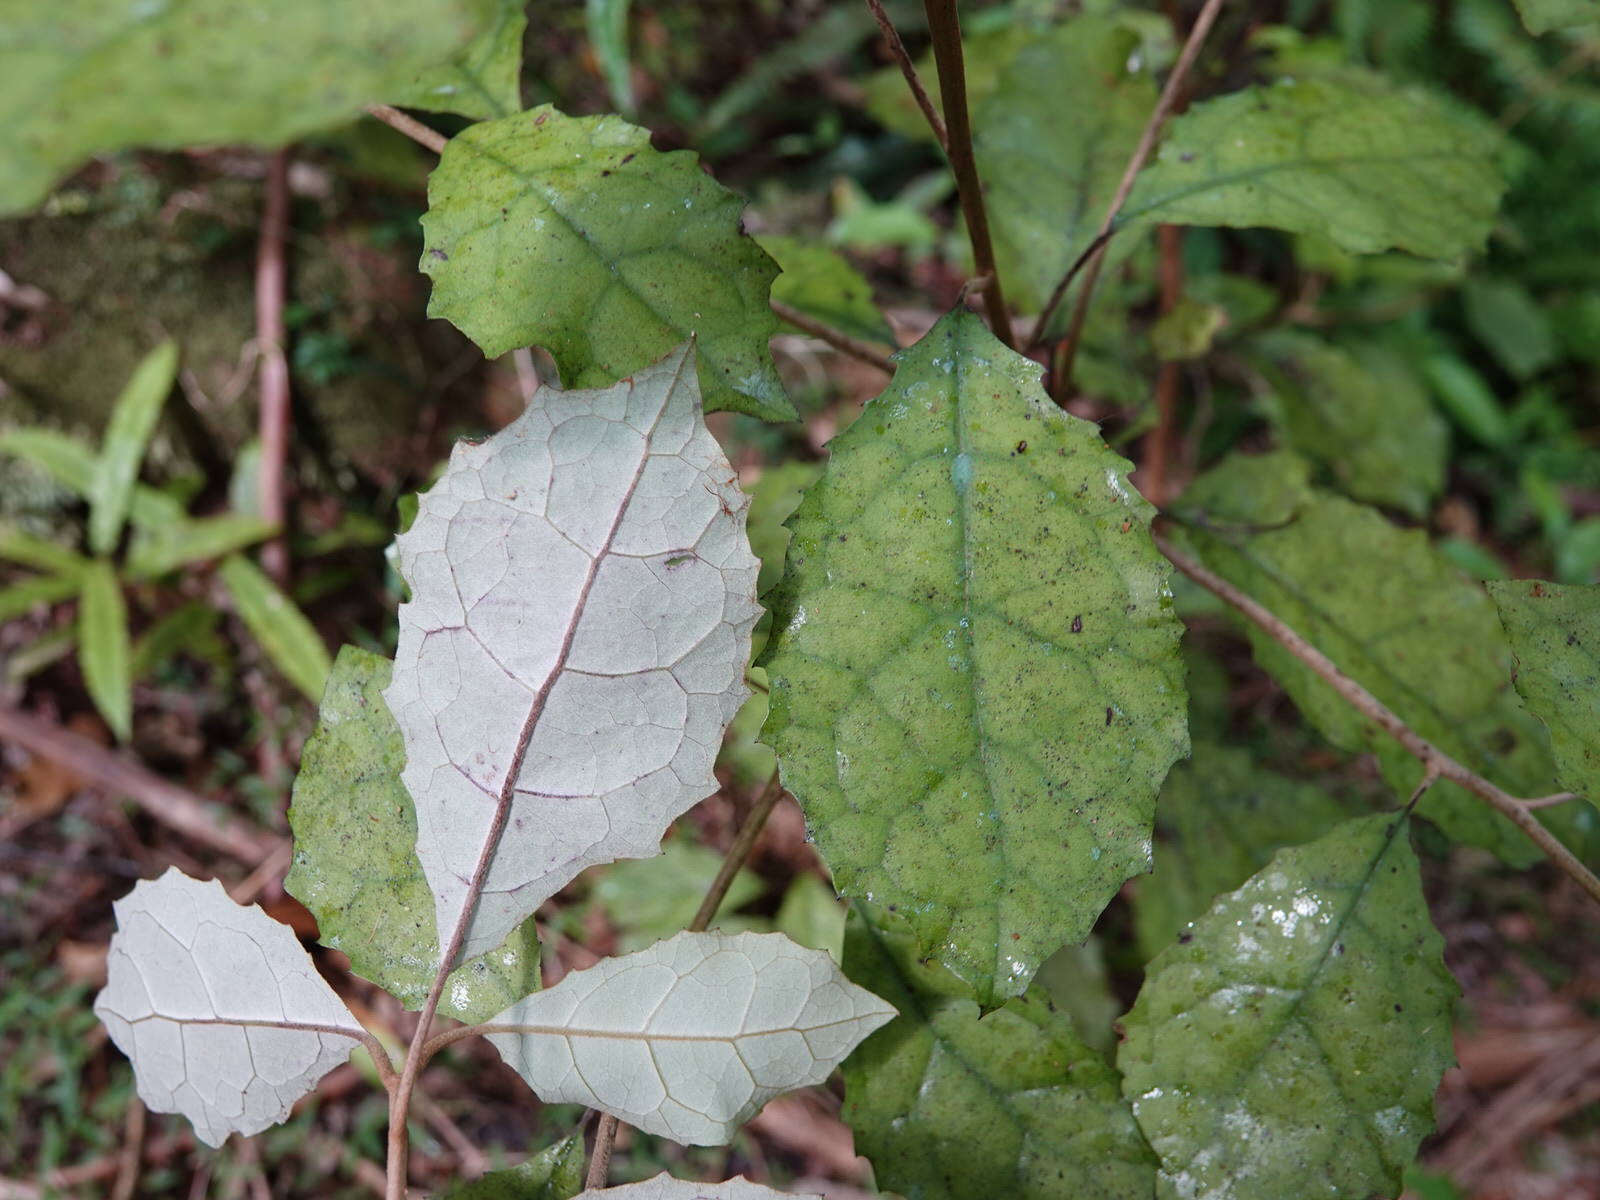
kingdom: Plantae
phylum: Tracheophyta
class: Magnoliopsida
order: Asterales
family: Asteraceae
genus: Olearia
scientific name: Olearia rani
